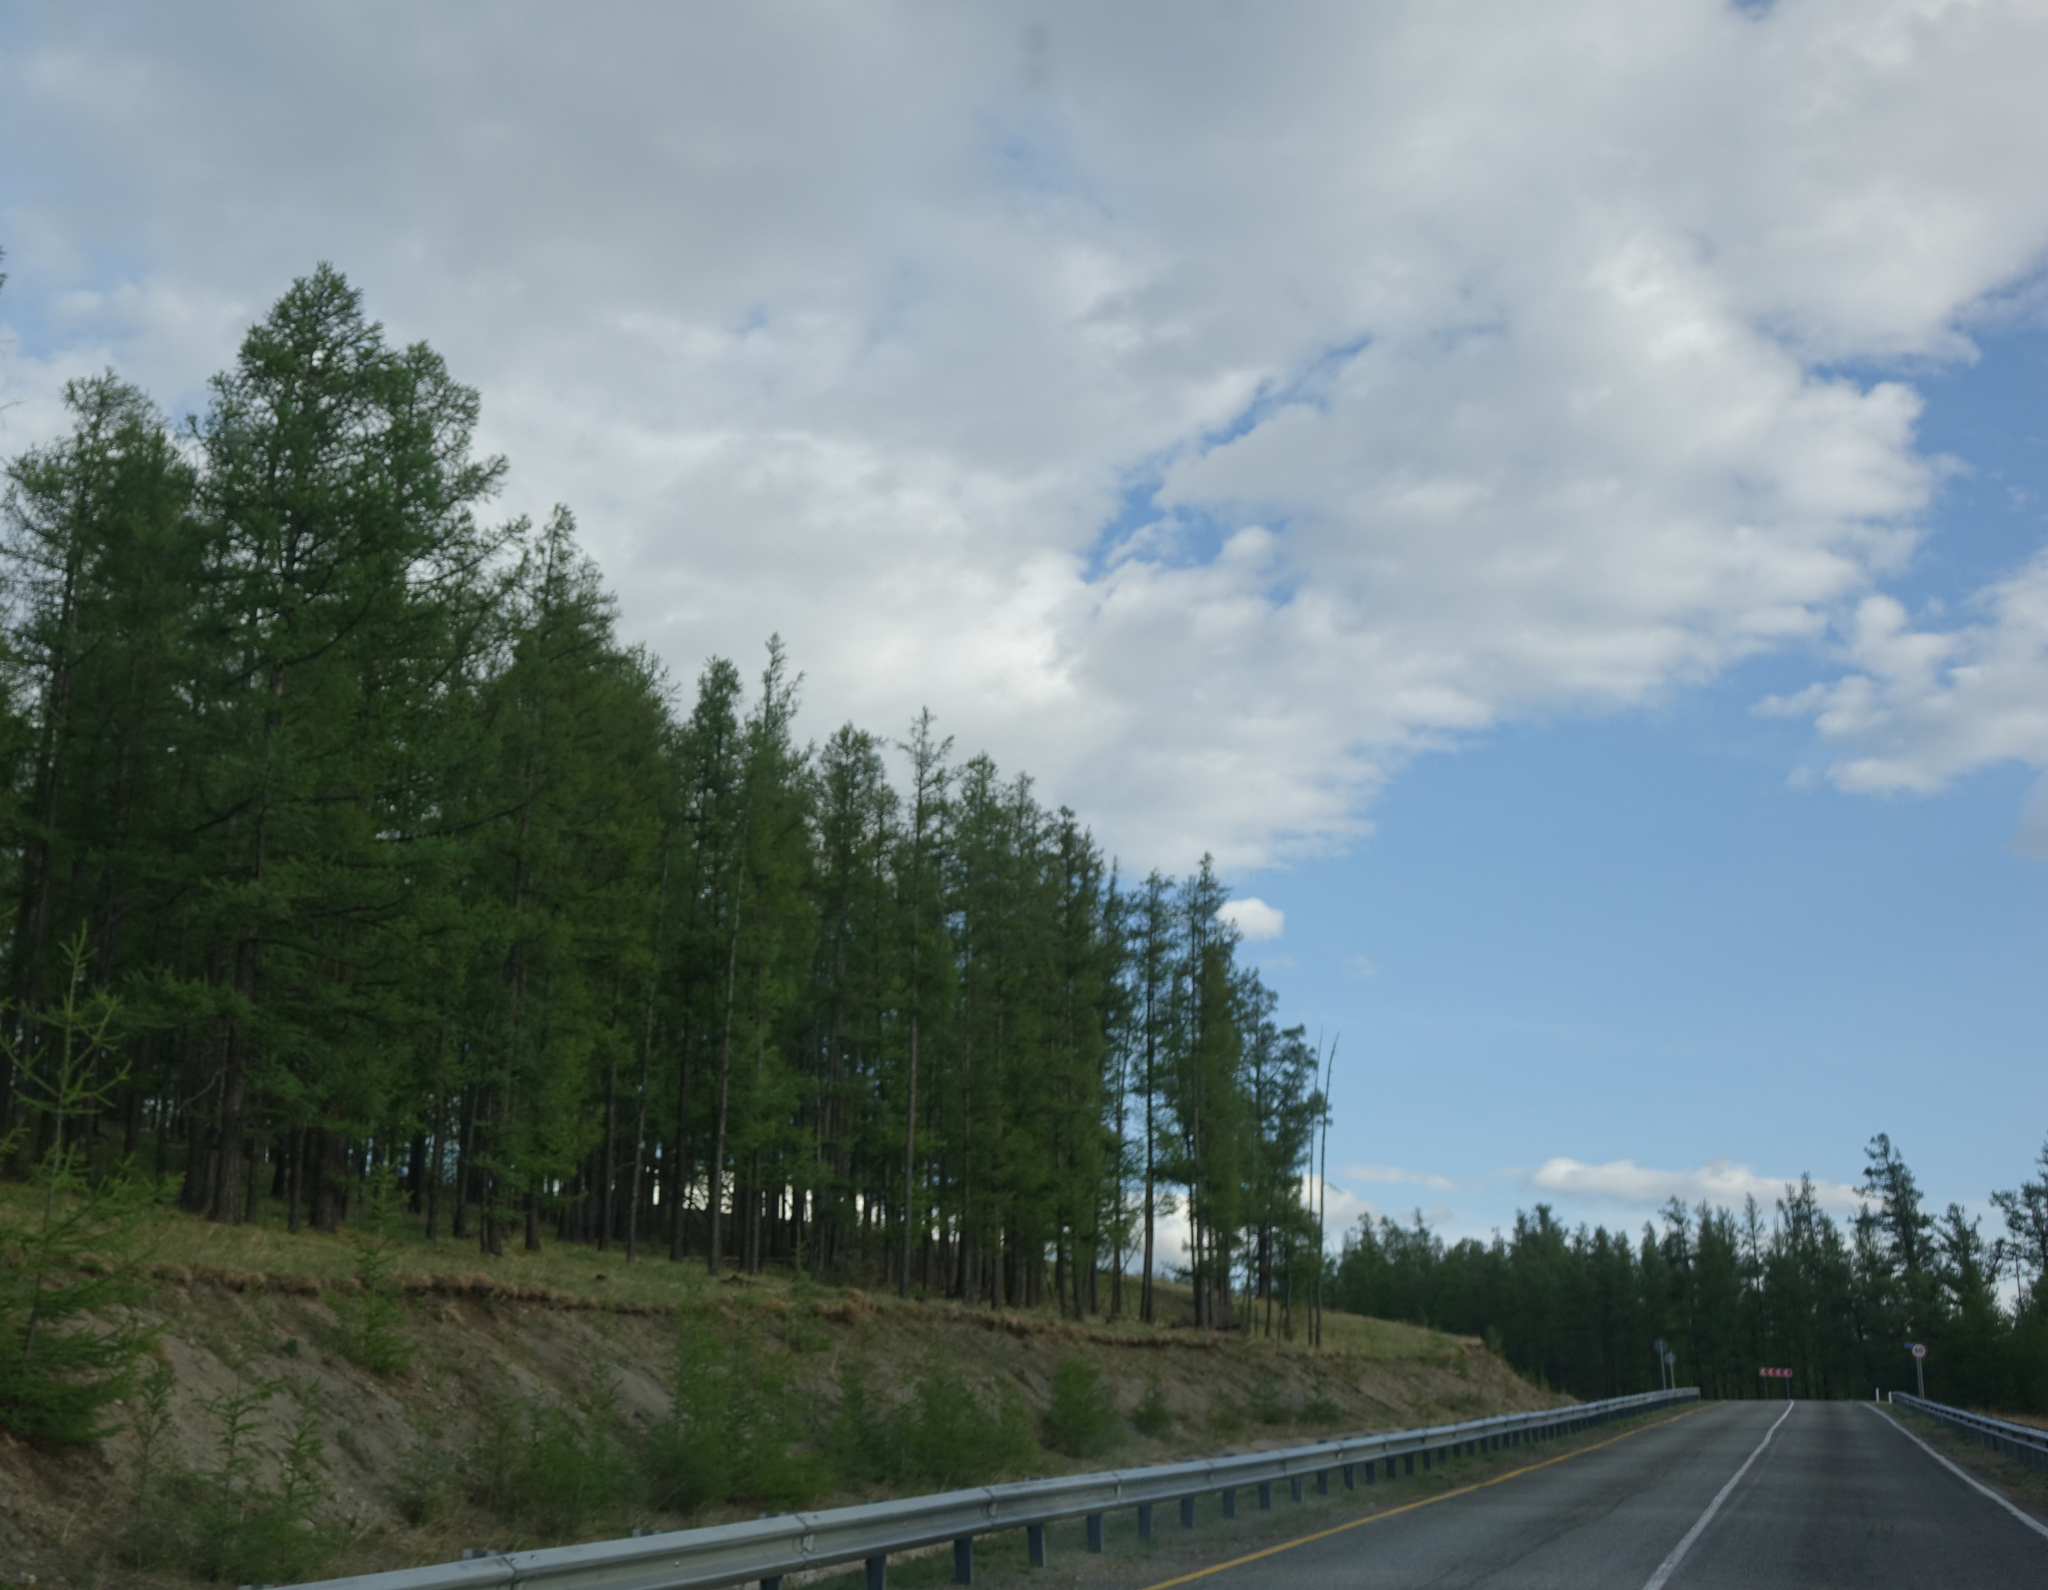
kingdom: Plantae
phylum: Tracheophyta
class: Pinopsida
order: Pinales
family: Pinaceae
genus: Larix
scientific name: Larix sibirica
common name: Siberian larch
